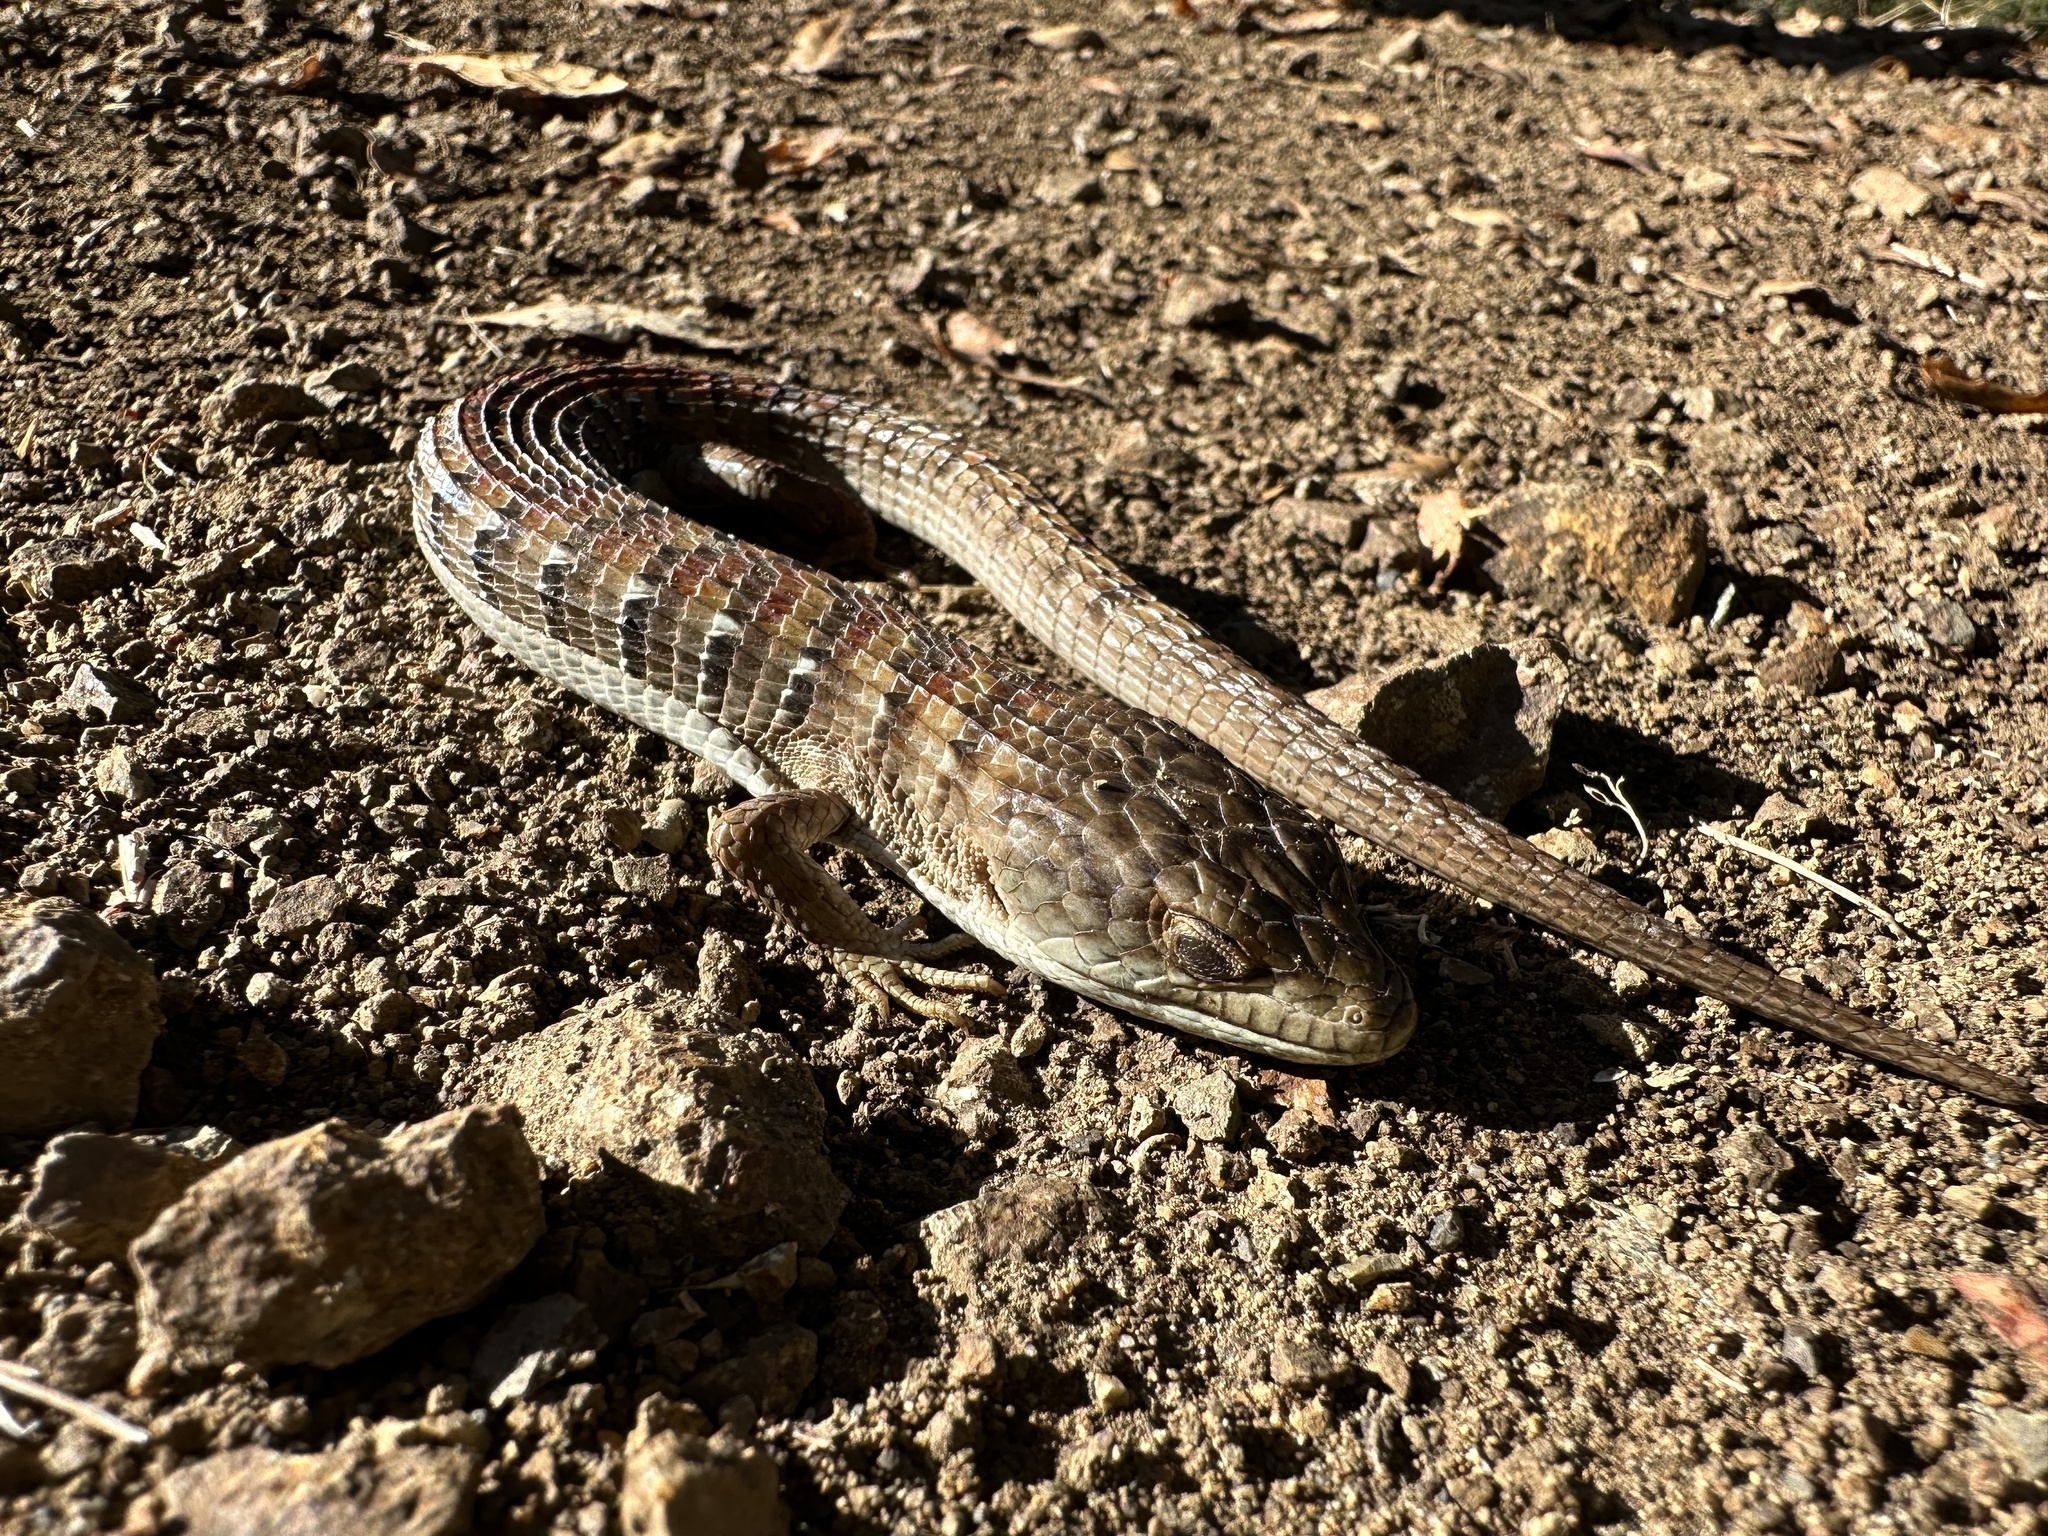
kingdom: Animalia
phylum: Chordata
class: Squamata
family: Anguidae
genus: Elgaria
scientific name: Elgaria multicarinata
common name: Southern alligator lizard
